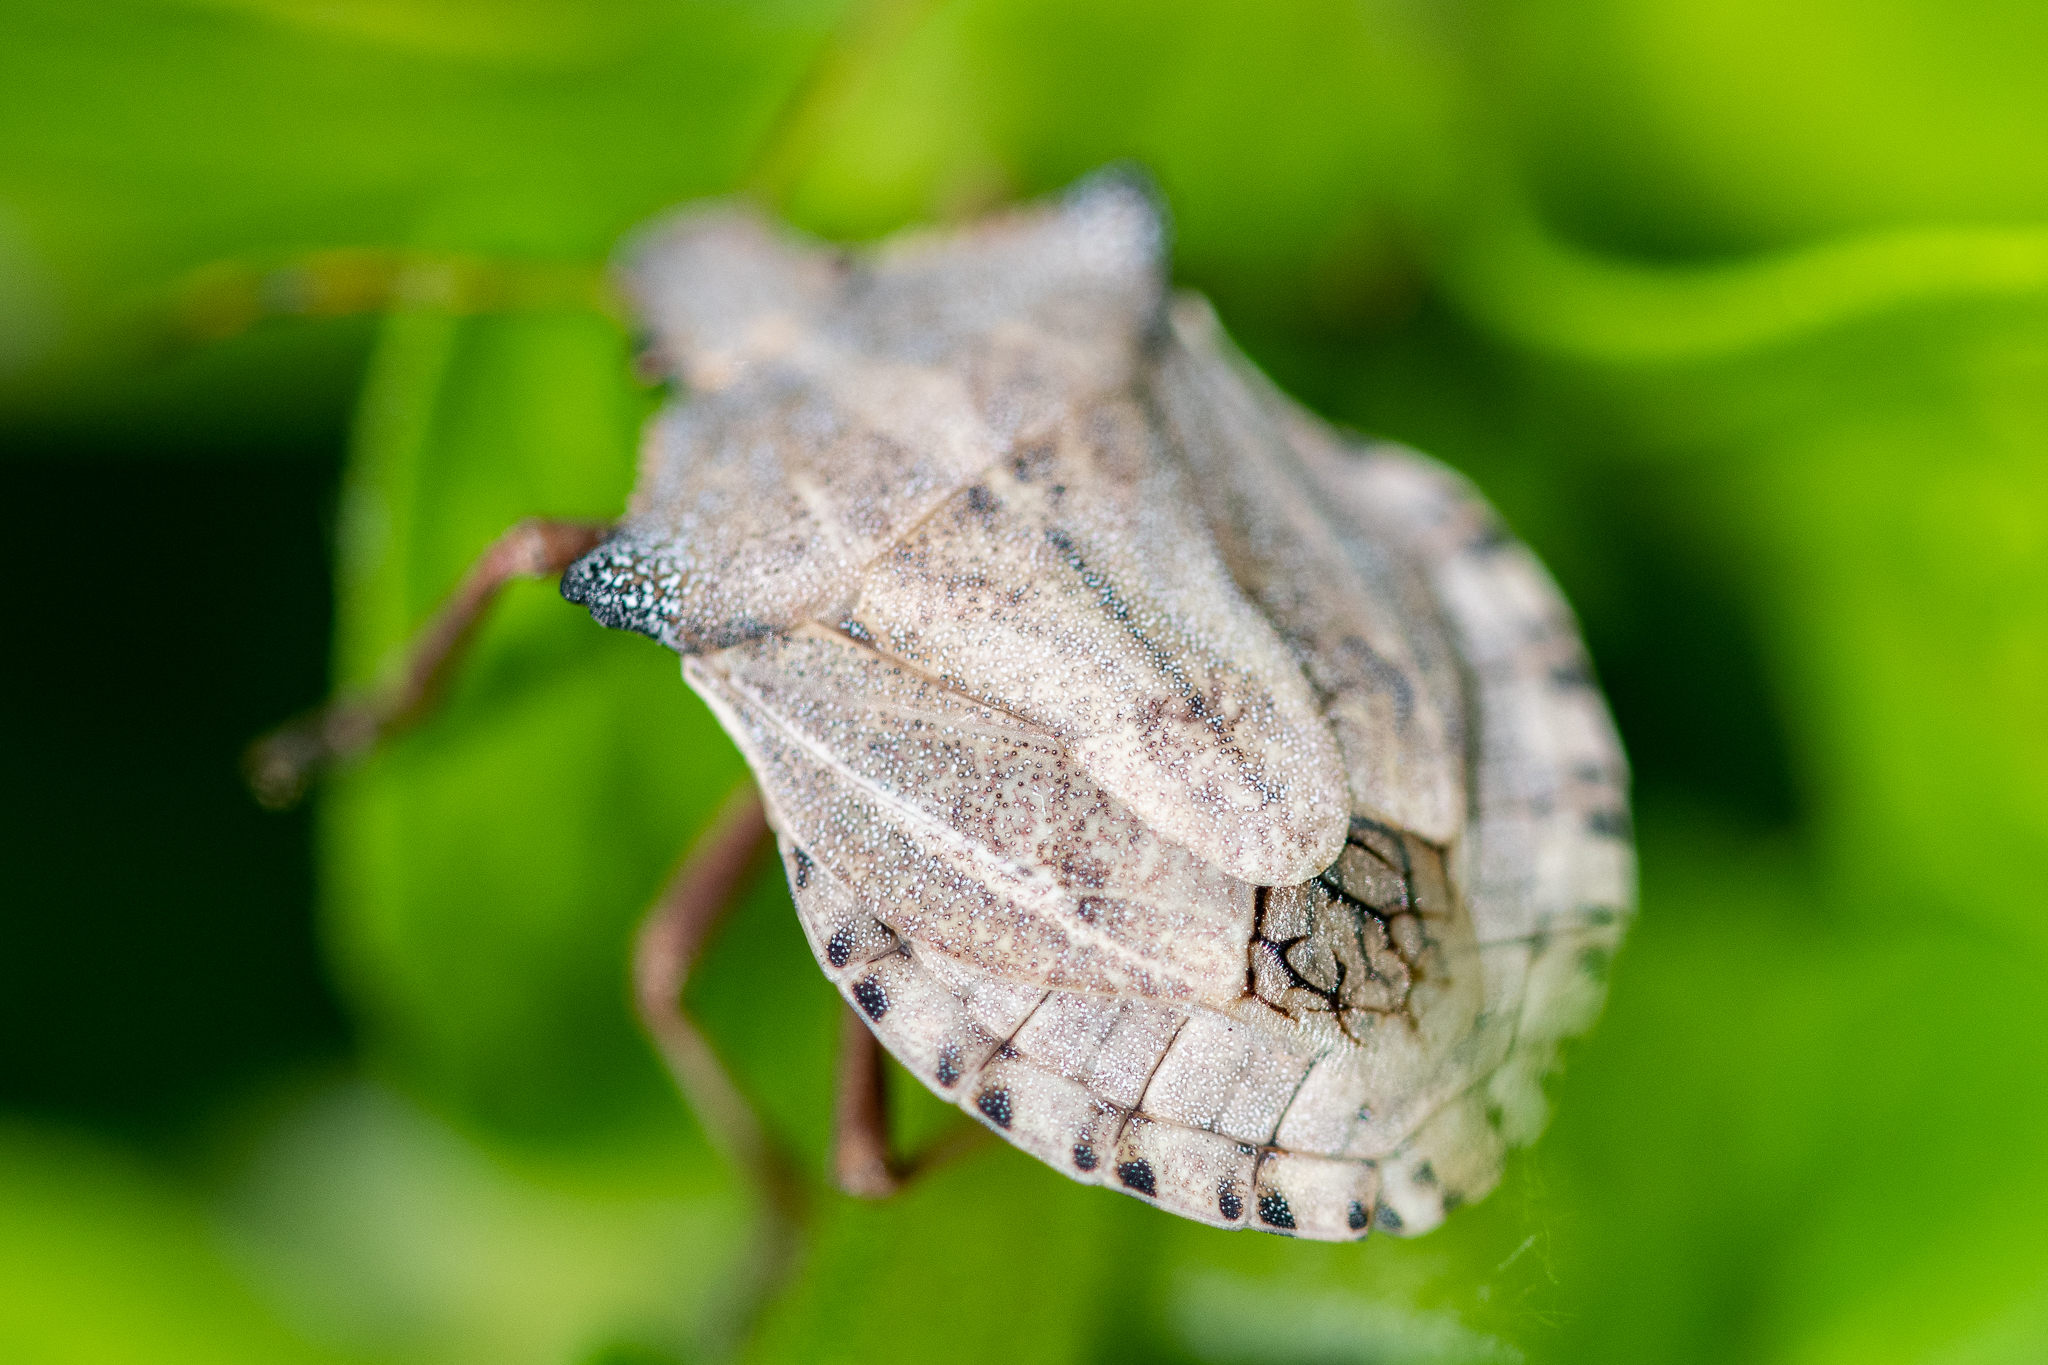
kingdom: Animalia
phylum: Arthropoda
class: Insecta
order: Hemiptera
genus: Eurus
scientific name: Eurus
